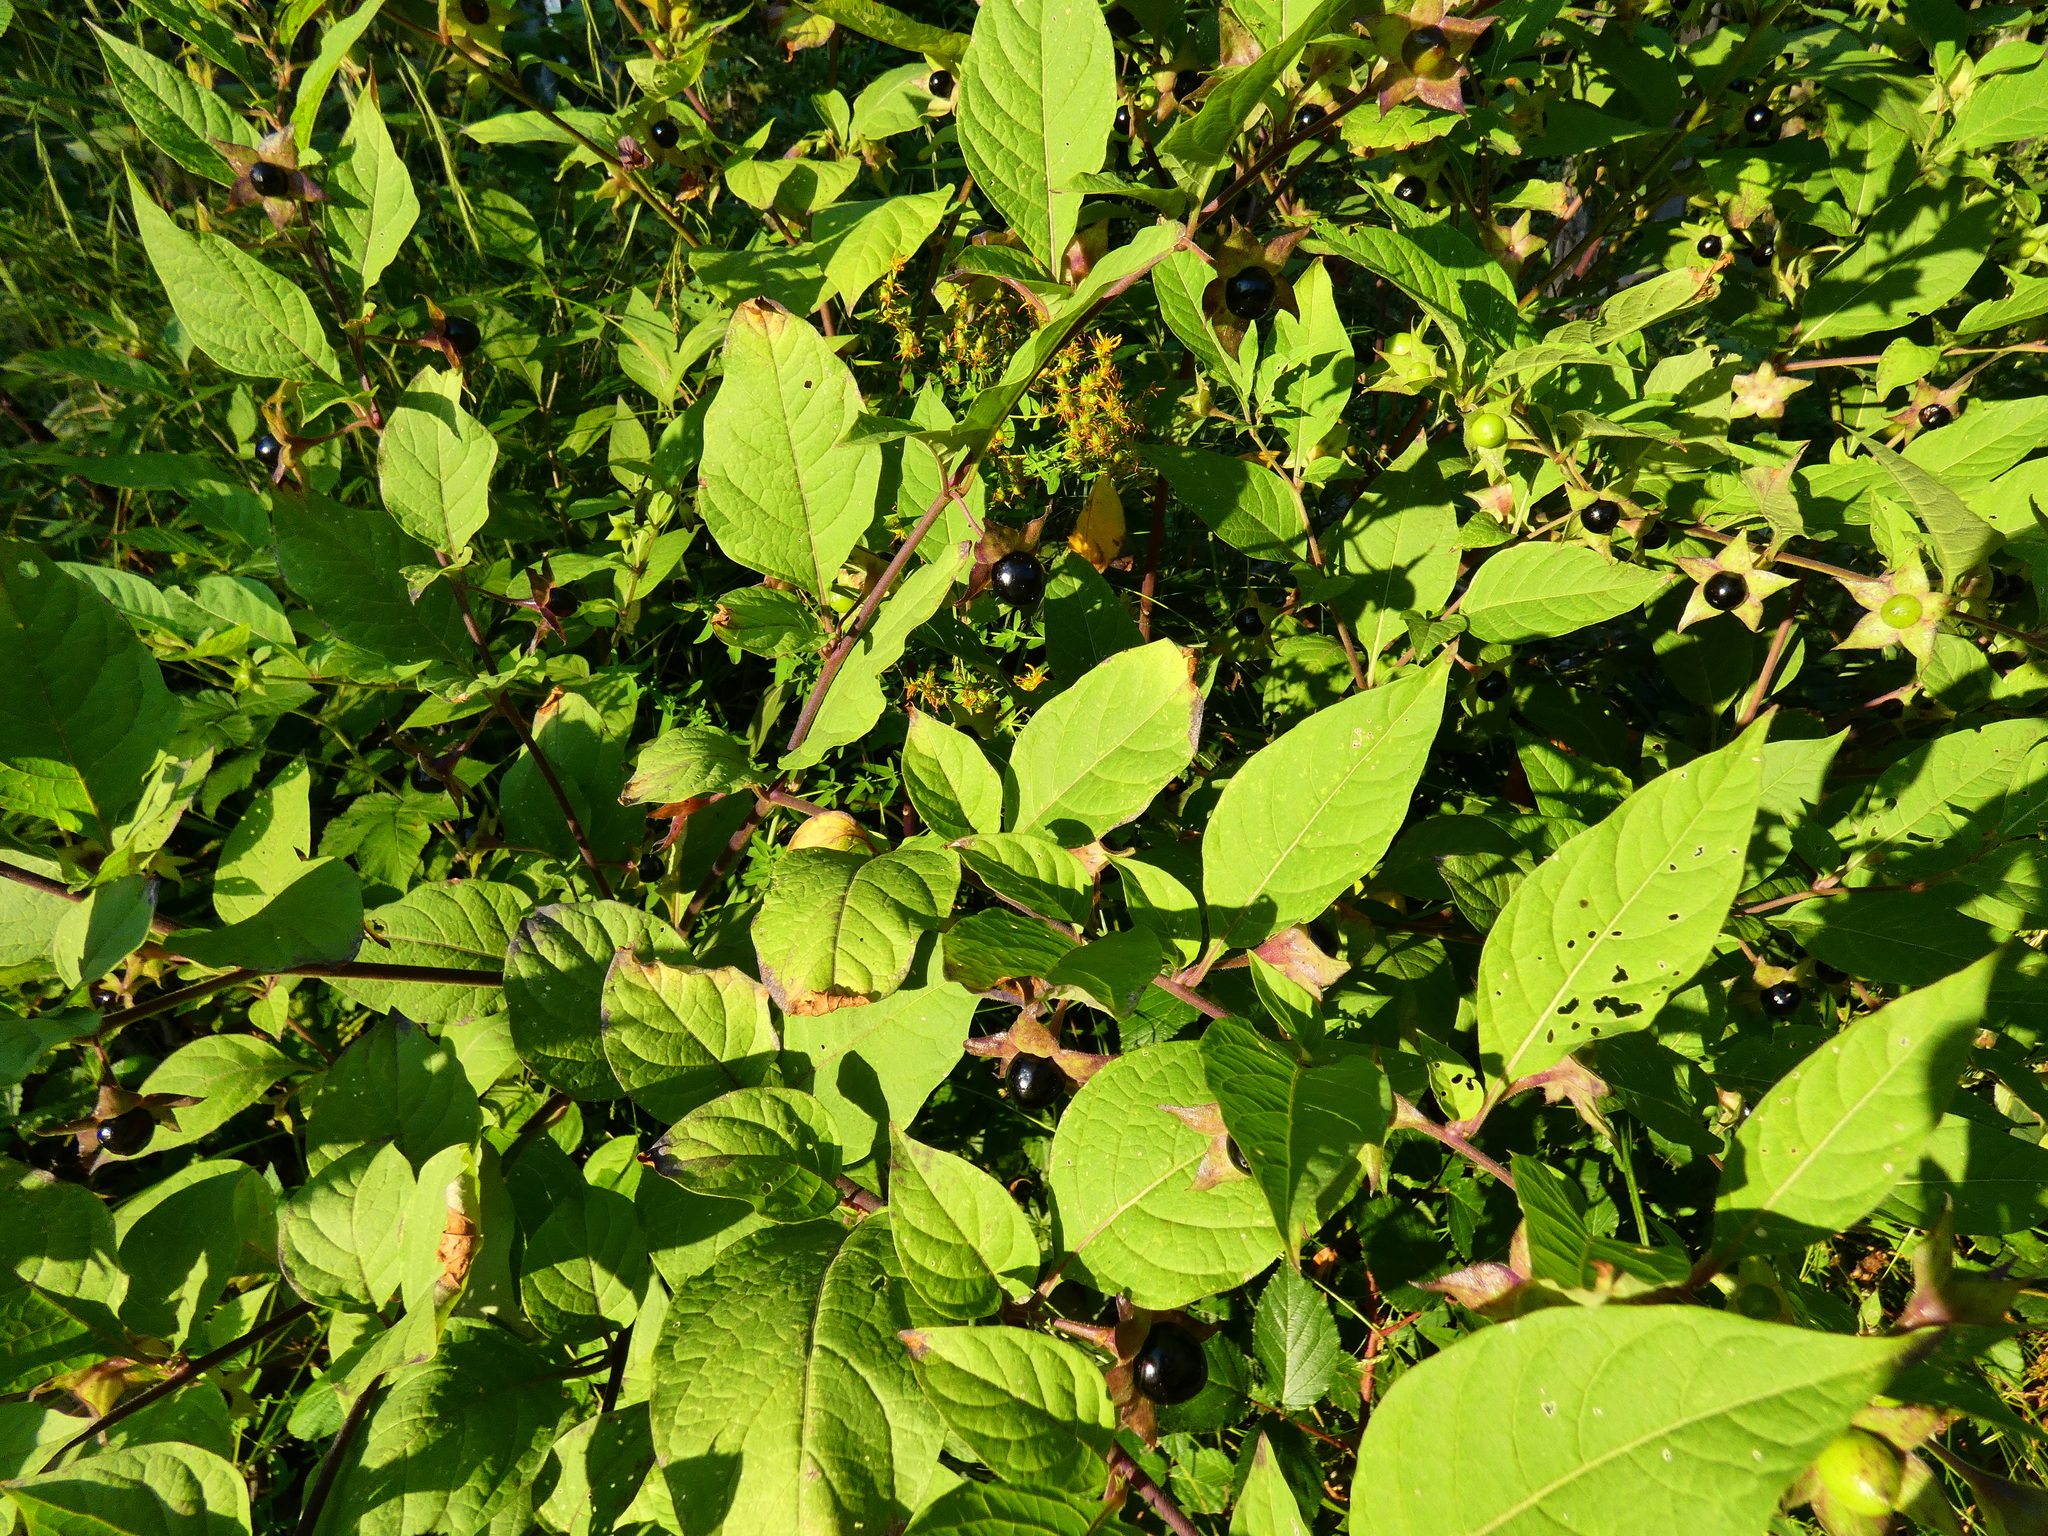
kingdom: Plantae
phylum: Tracheophyta
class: Magnoliopsida
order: Solanales
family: Solanaceae
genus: Atropa
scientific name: Atropa belladonna
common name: Deadly nightshade
